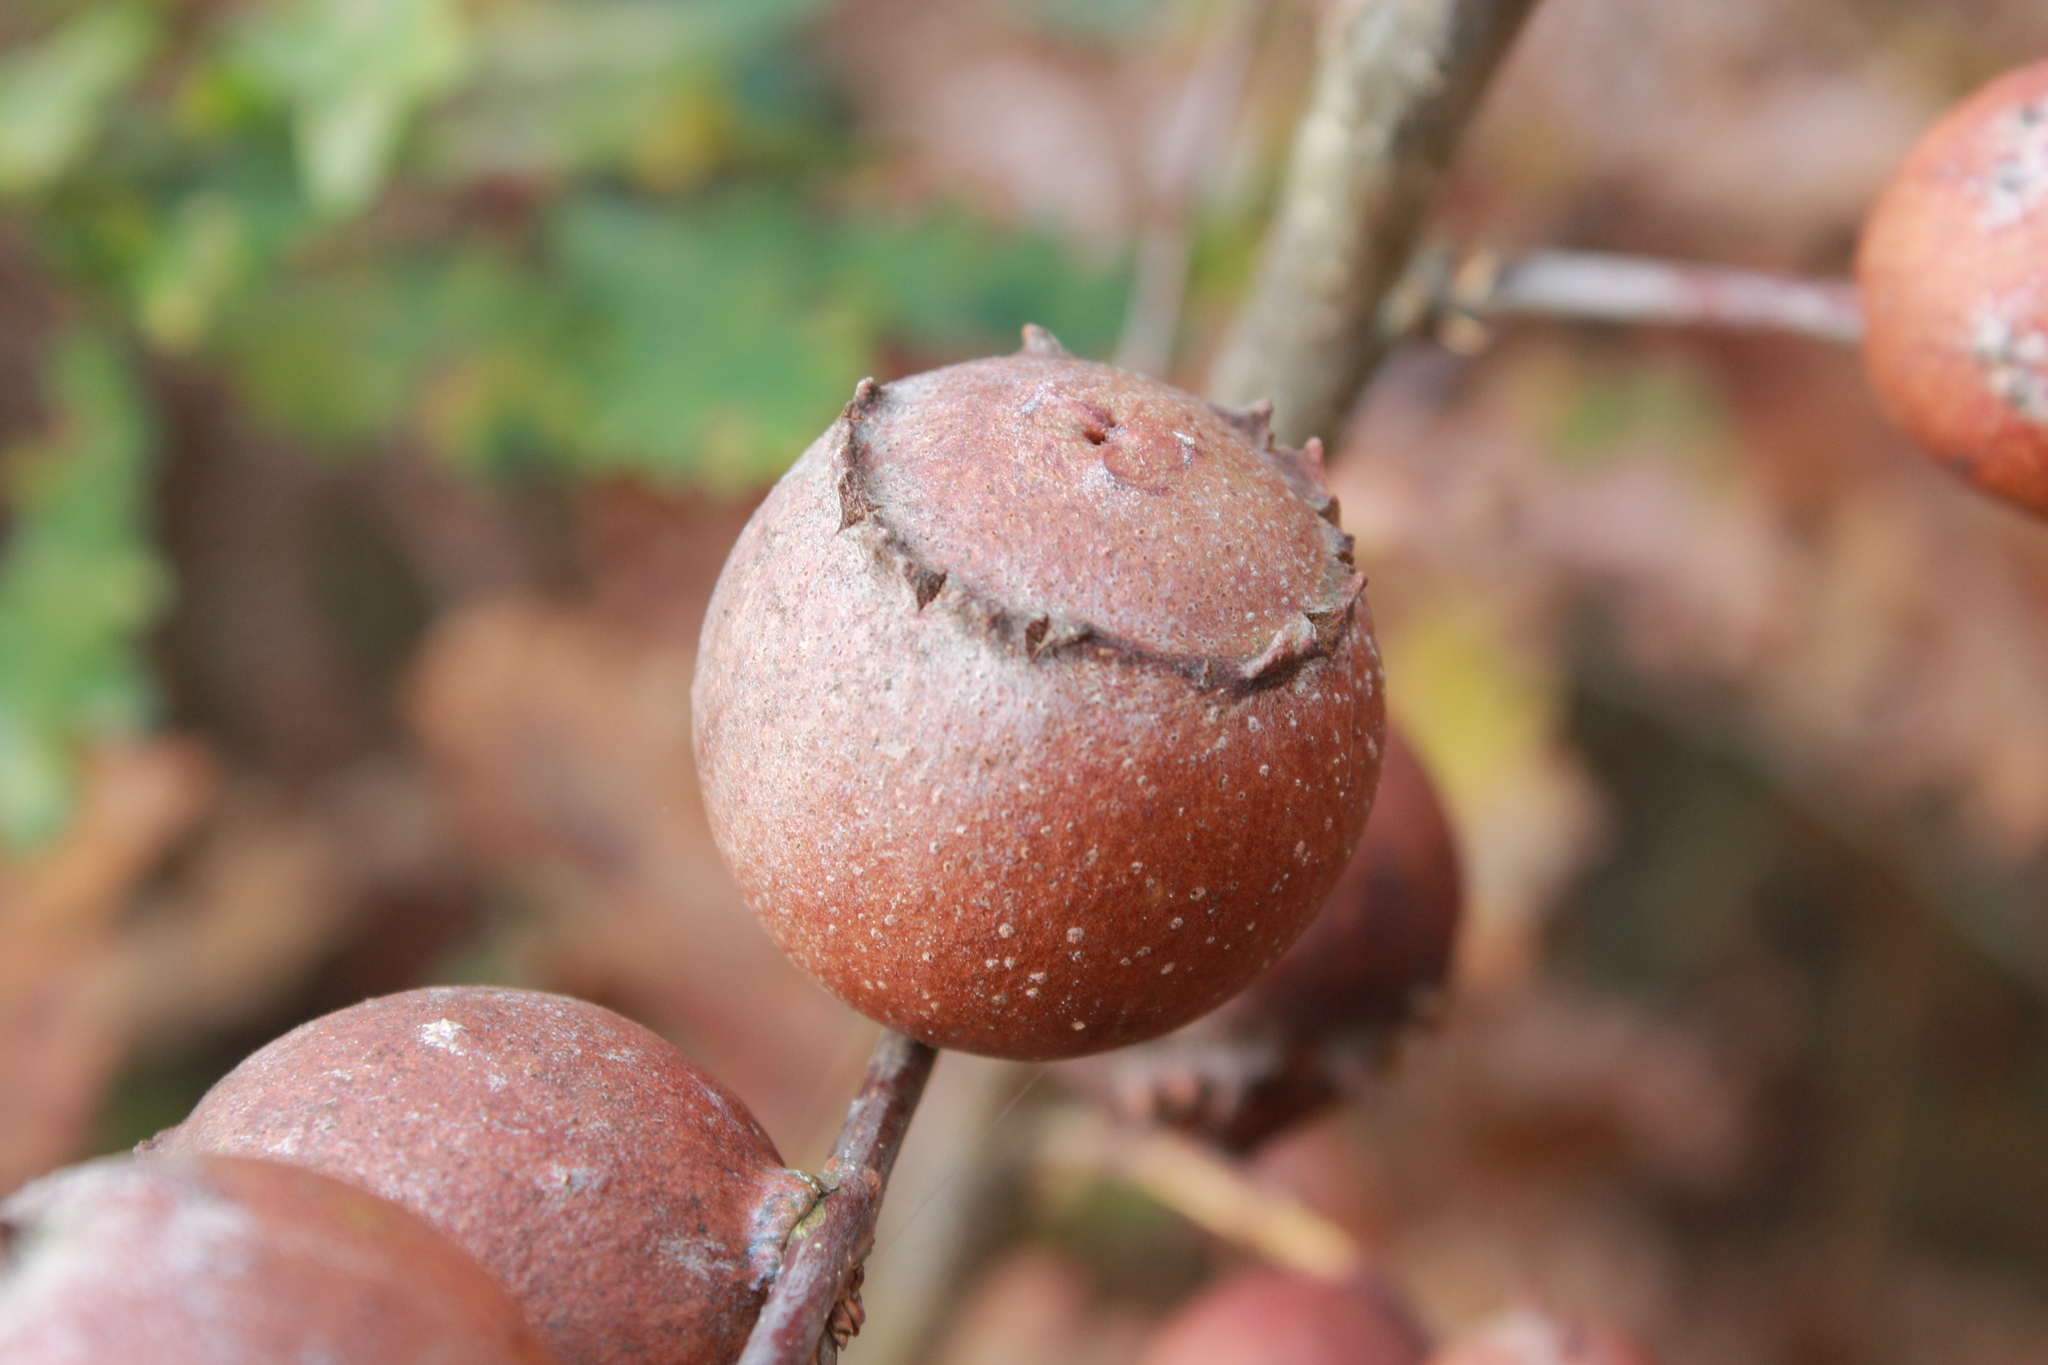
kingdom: Animalia
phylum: Arthropoda
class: Insecta
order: Hymenoptera
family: Cynipidae
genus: Andricus
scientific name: Andricus quercustozae
